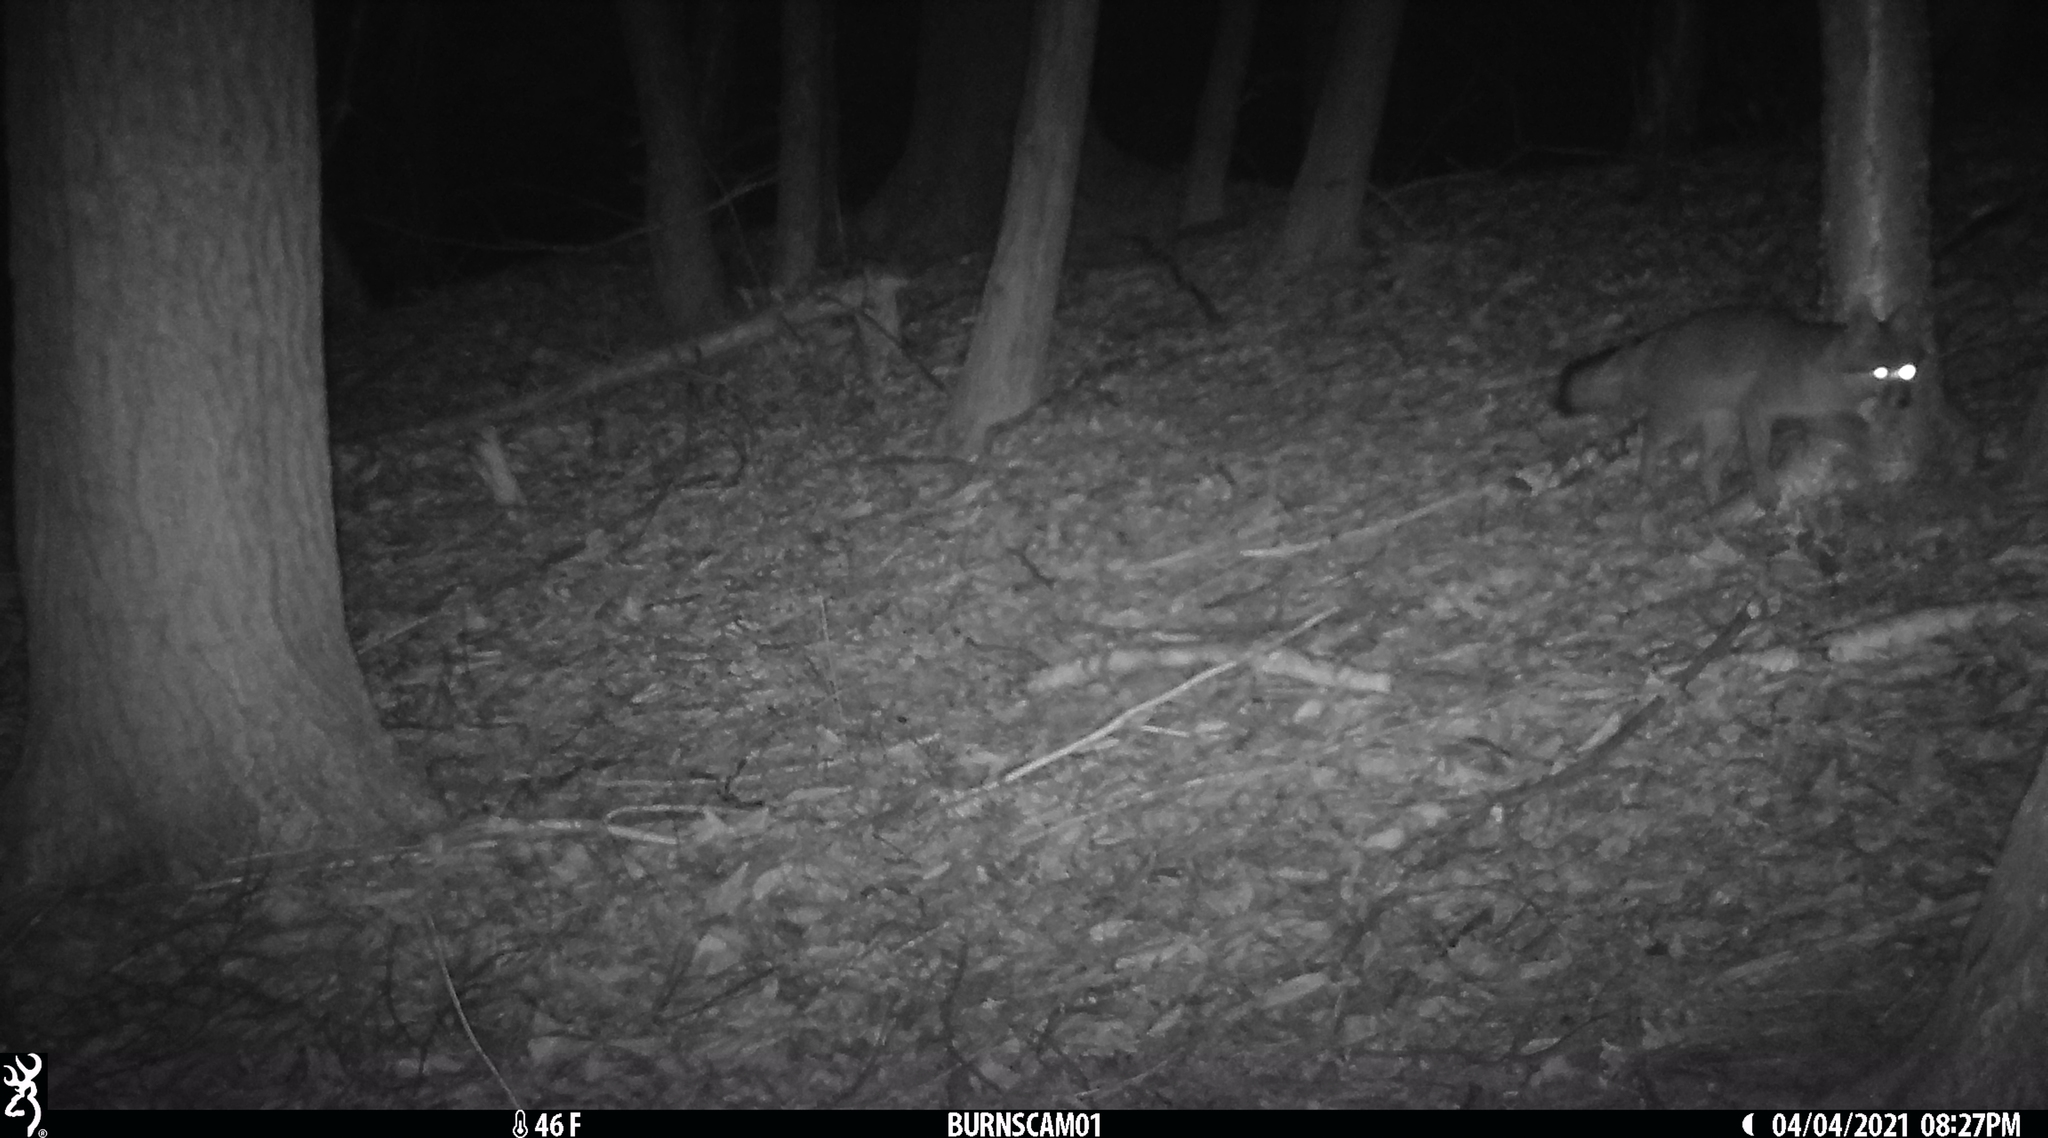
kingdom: Animalia
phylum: Chordata
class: Mammalia
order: Carnivora
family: Canidae
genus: Urocyon
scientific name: Urocyon cinereoargenteus
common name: Gray fox
